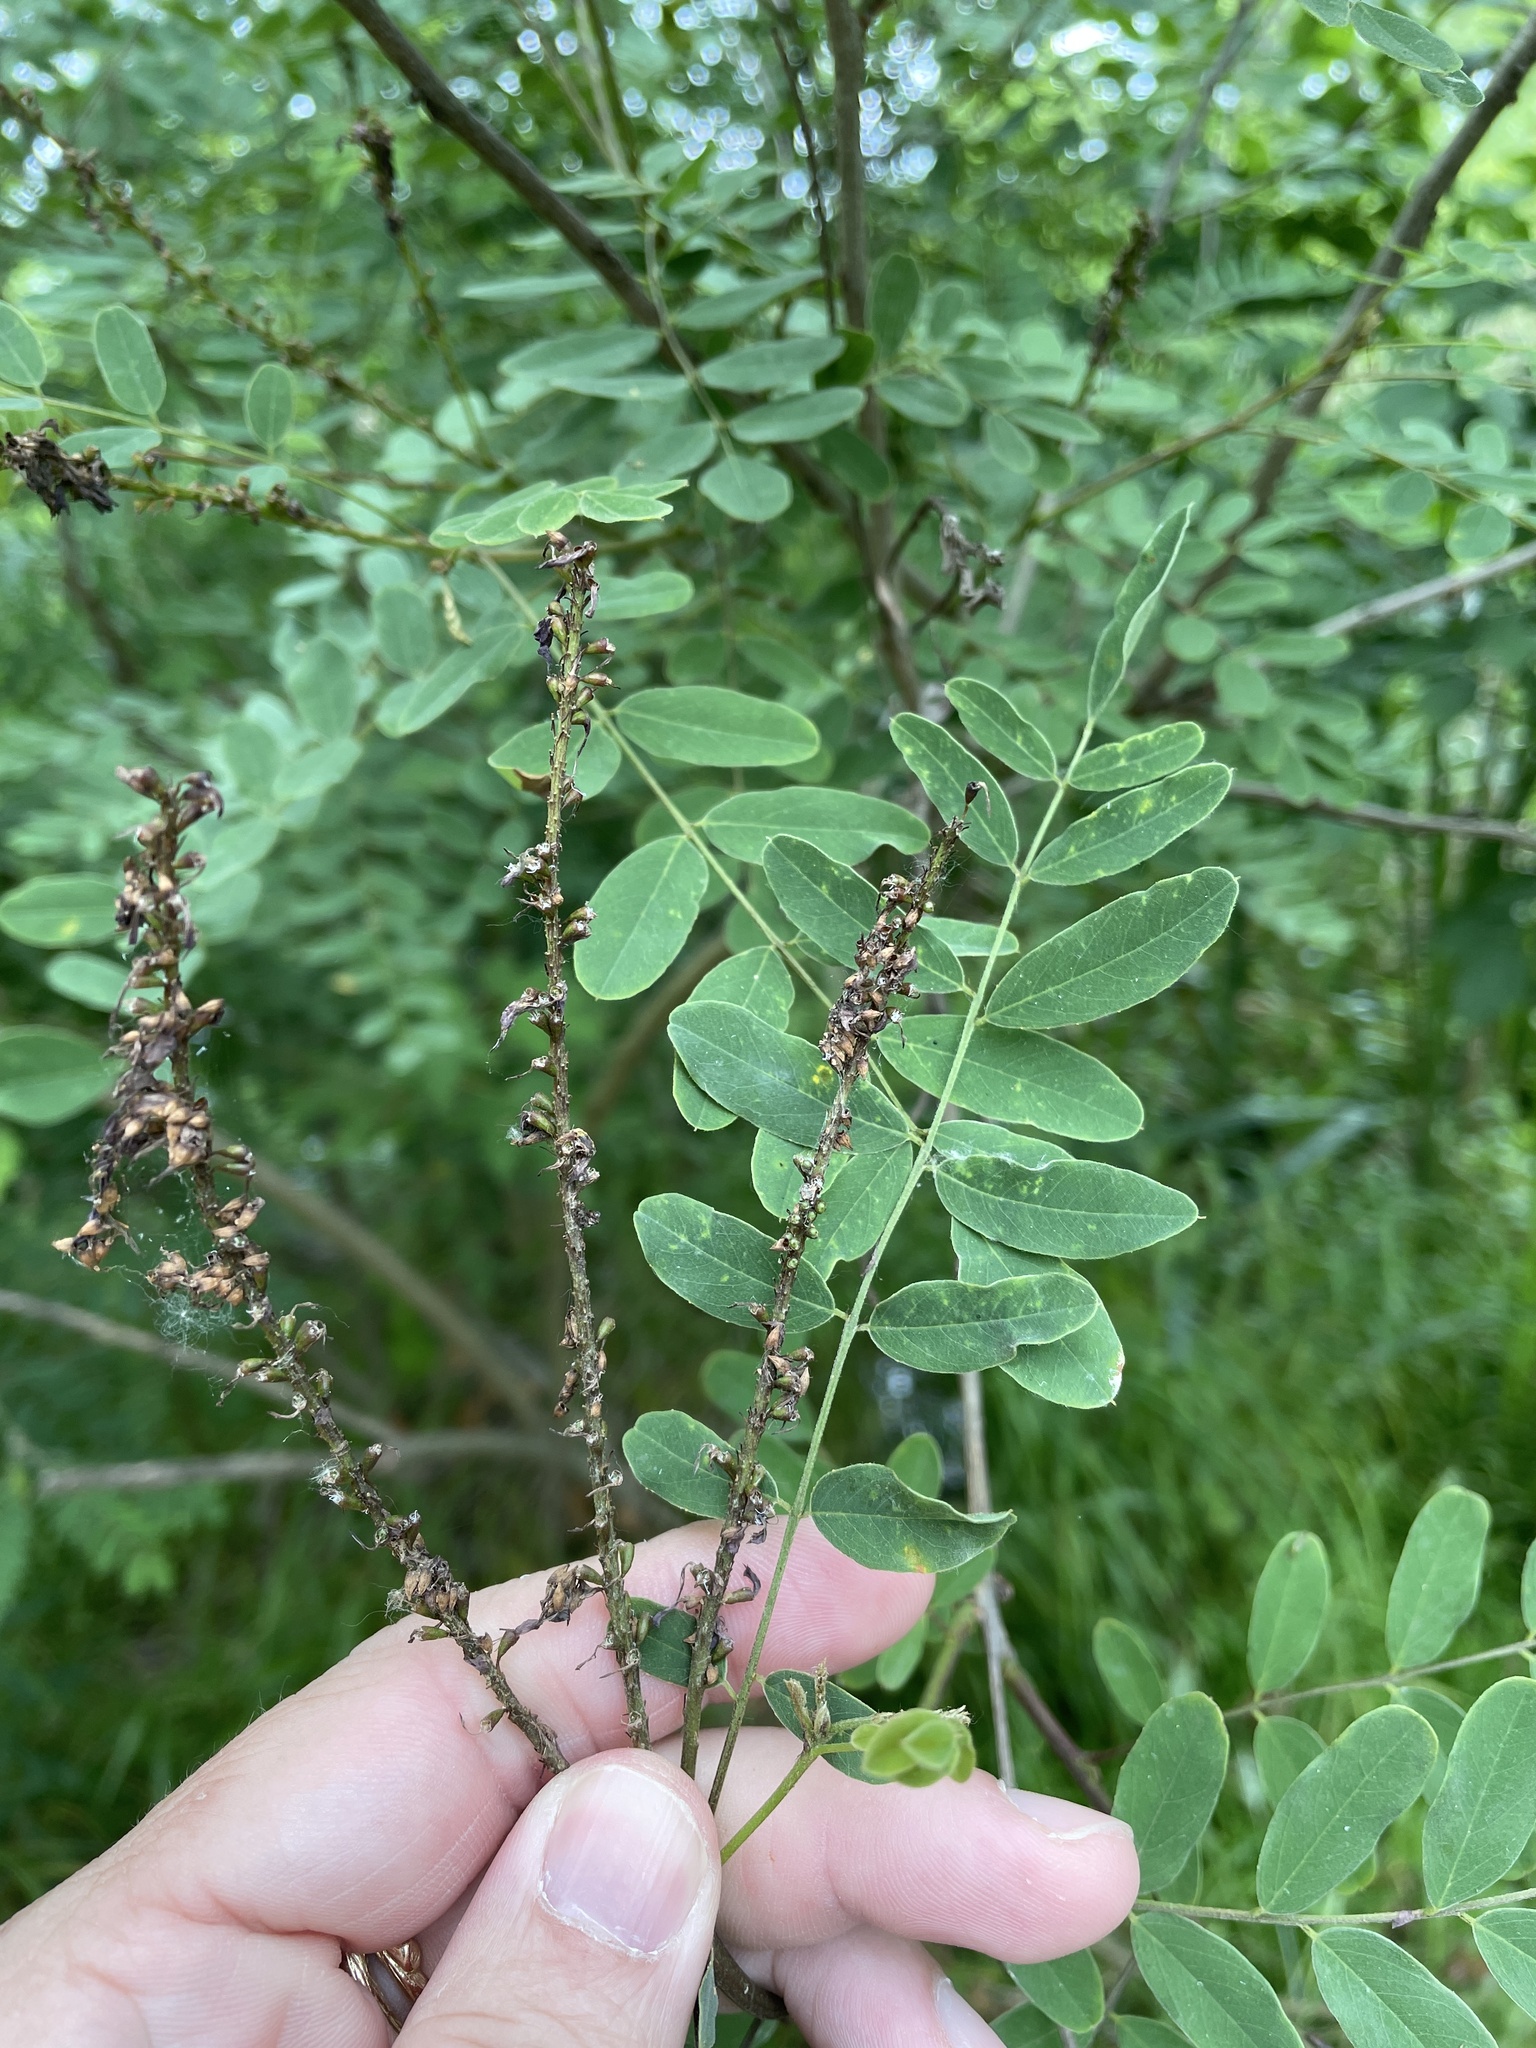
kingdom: Plantae
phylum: Tracheophyta
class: Magnoliopsida
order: Fabales
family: Fabaceae
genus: Amorpha
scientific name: Amorpha fruticosa
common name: False indigo
